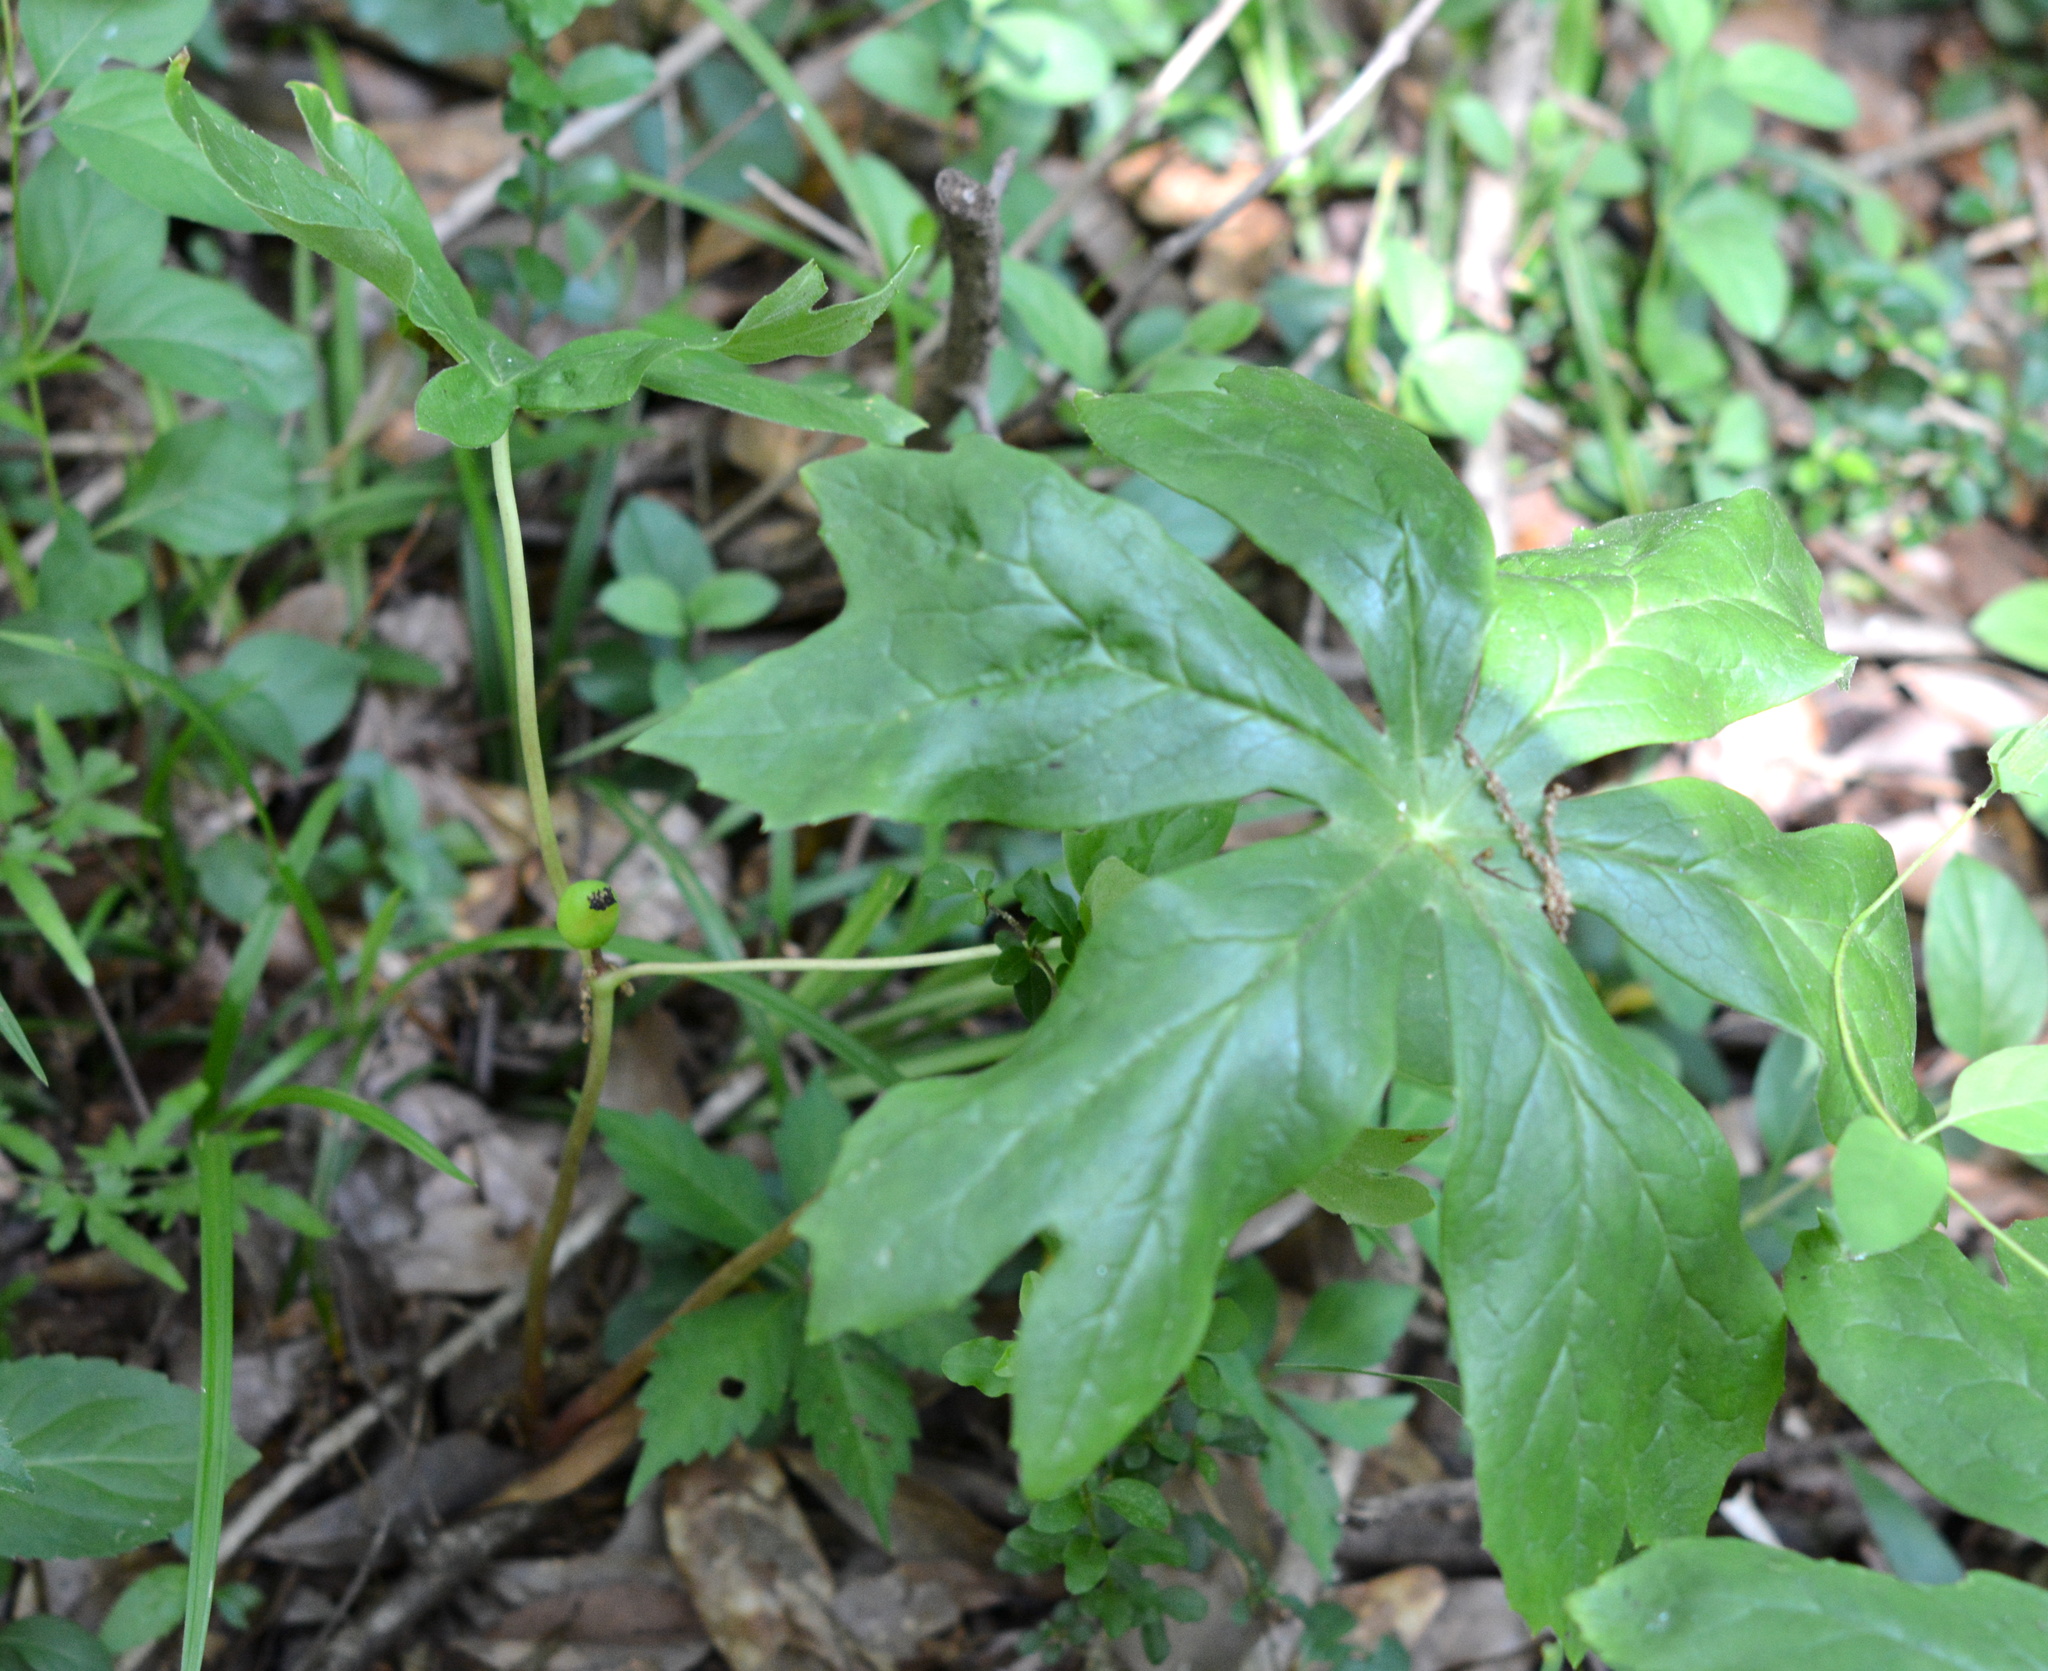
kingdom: Plantae
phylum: Tracheophyta
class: Magnoliopsida
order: Ranunculales
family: Berberidaceae
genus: Podophyllum
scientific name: Podophyllum peltatum
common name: Wild mandrake
